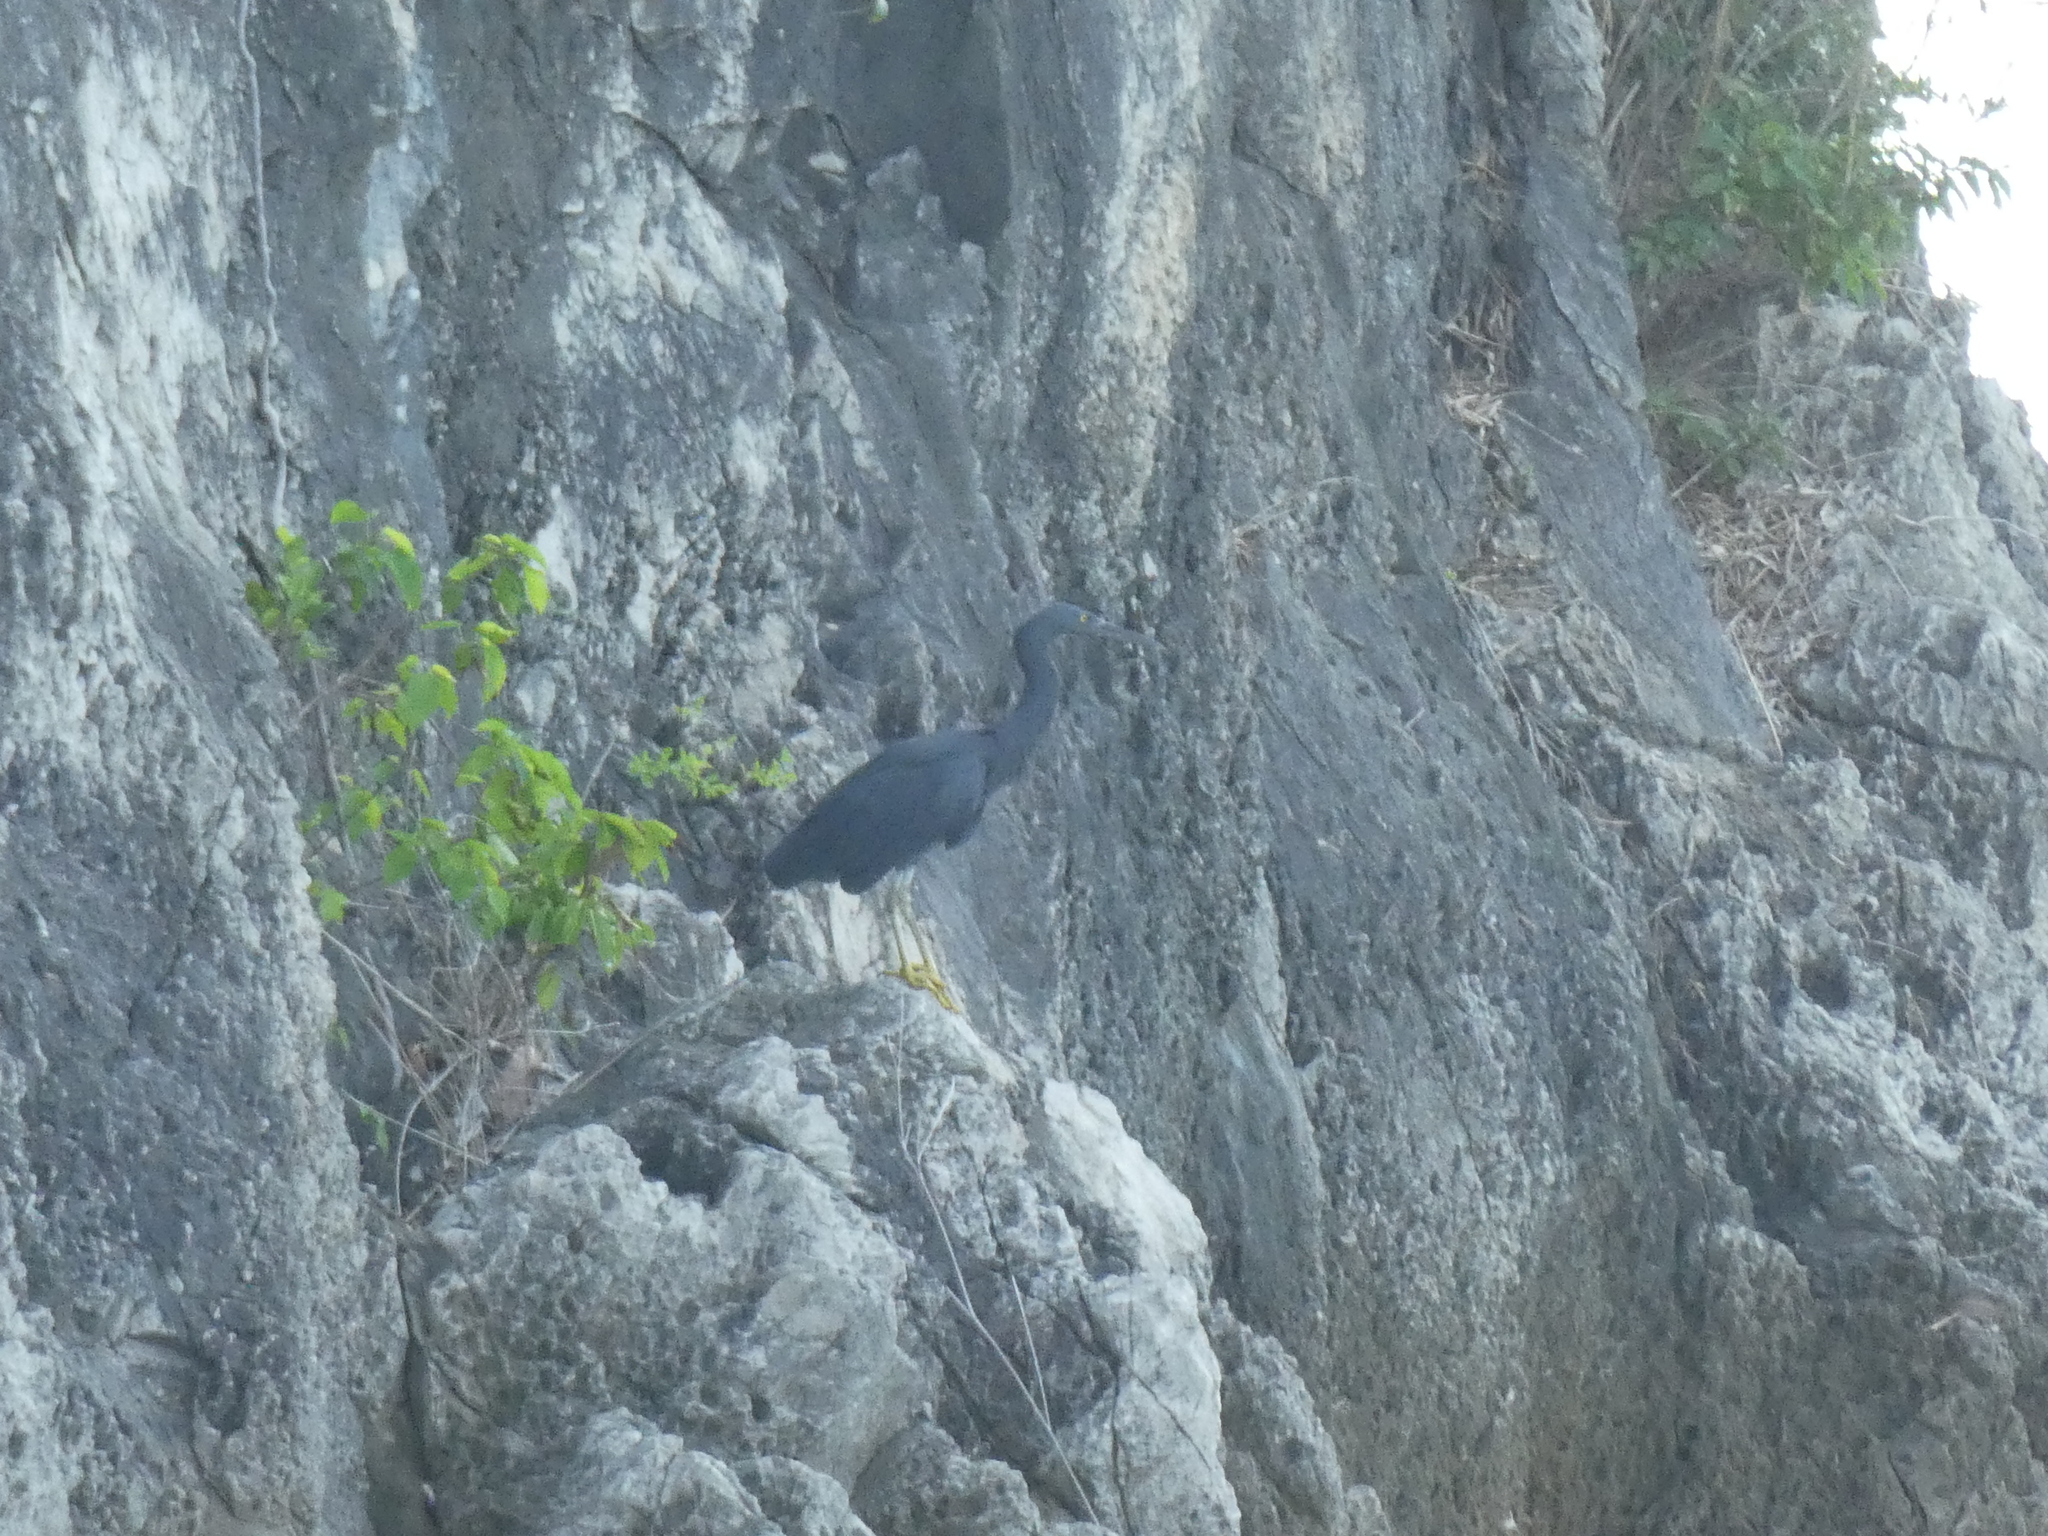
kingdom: Animalia
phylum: Chordata
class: Aves
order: Pelecaniformes
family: Ardeidae
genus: Egretta
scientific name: Egretta sacra
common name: Pacific reef heron
